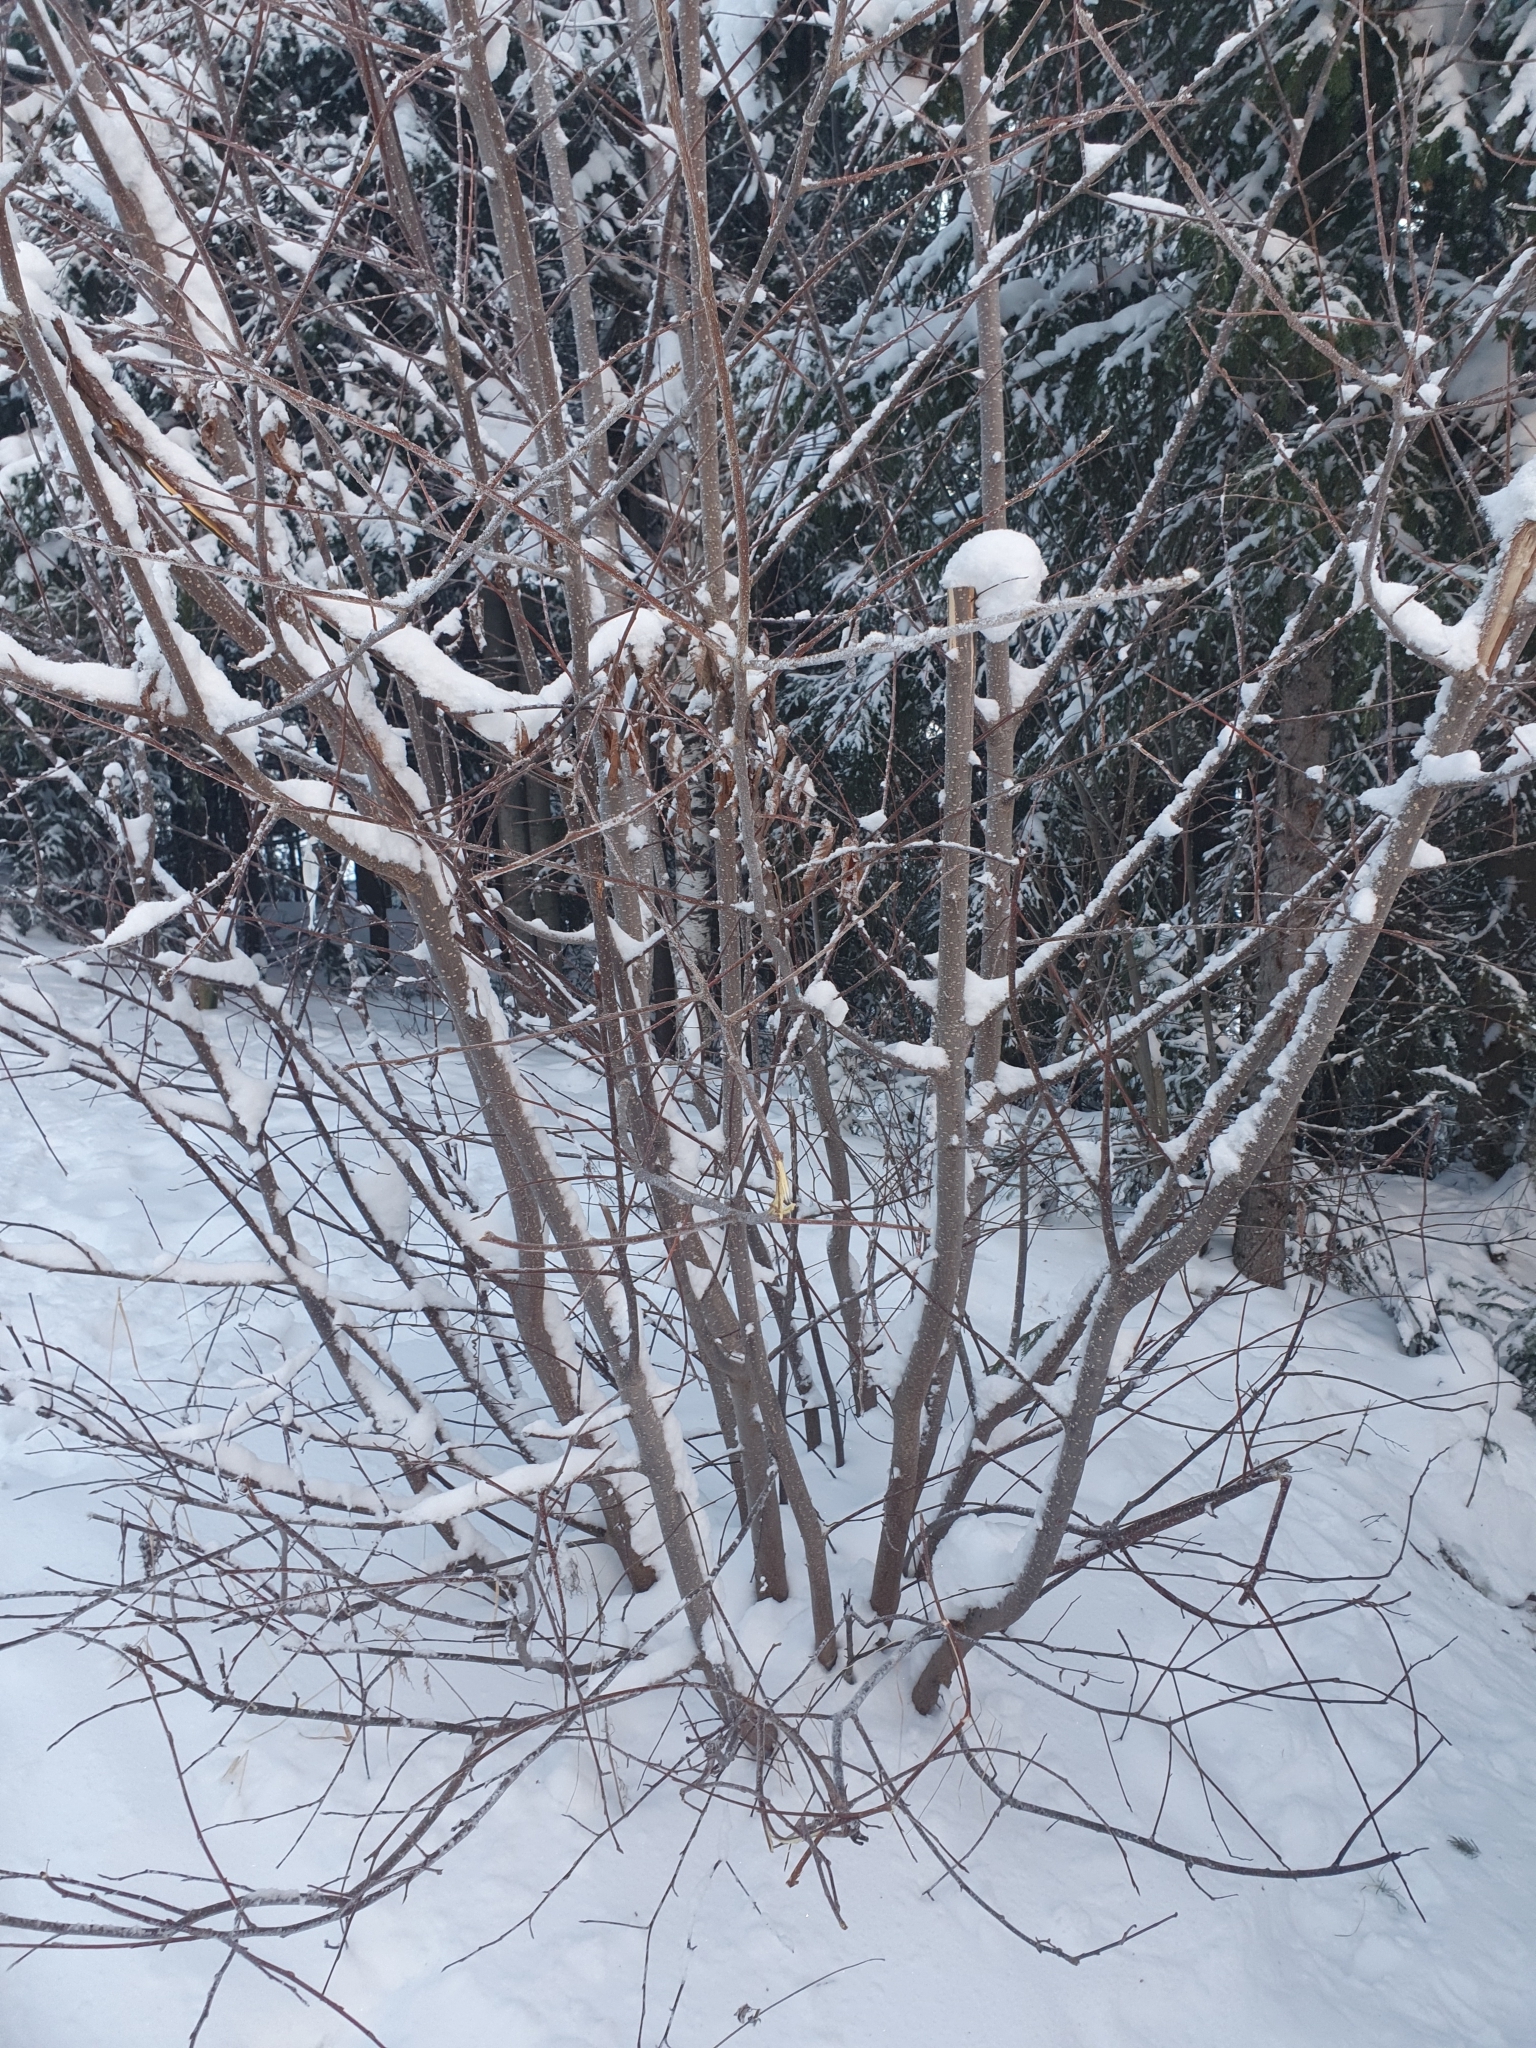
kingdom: Plantae
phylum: Tracheophyta
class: Magnoliopsida
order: Rosales
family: Rosaceae
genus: Prunus
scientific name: Prunus padus
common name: Bird cherry
